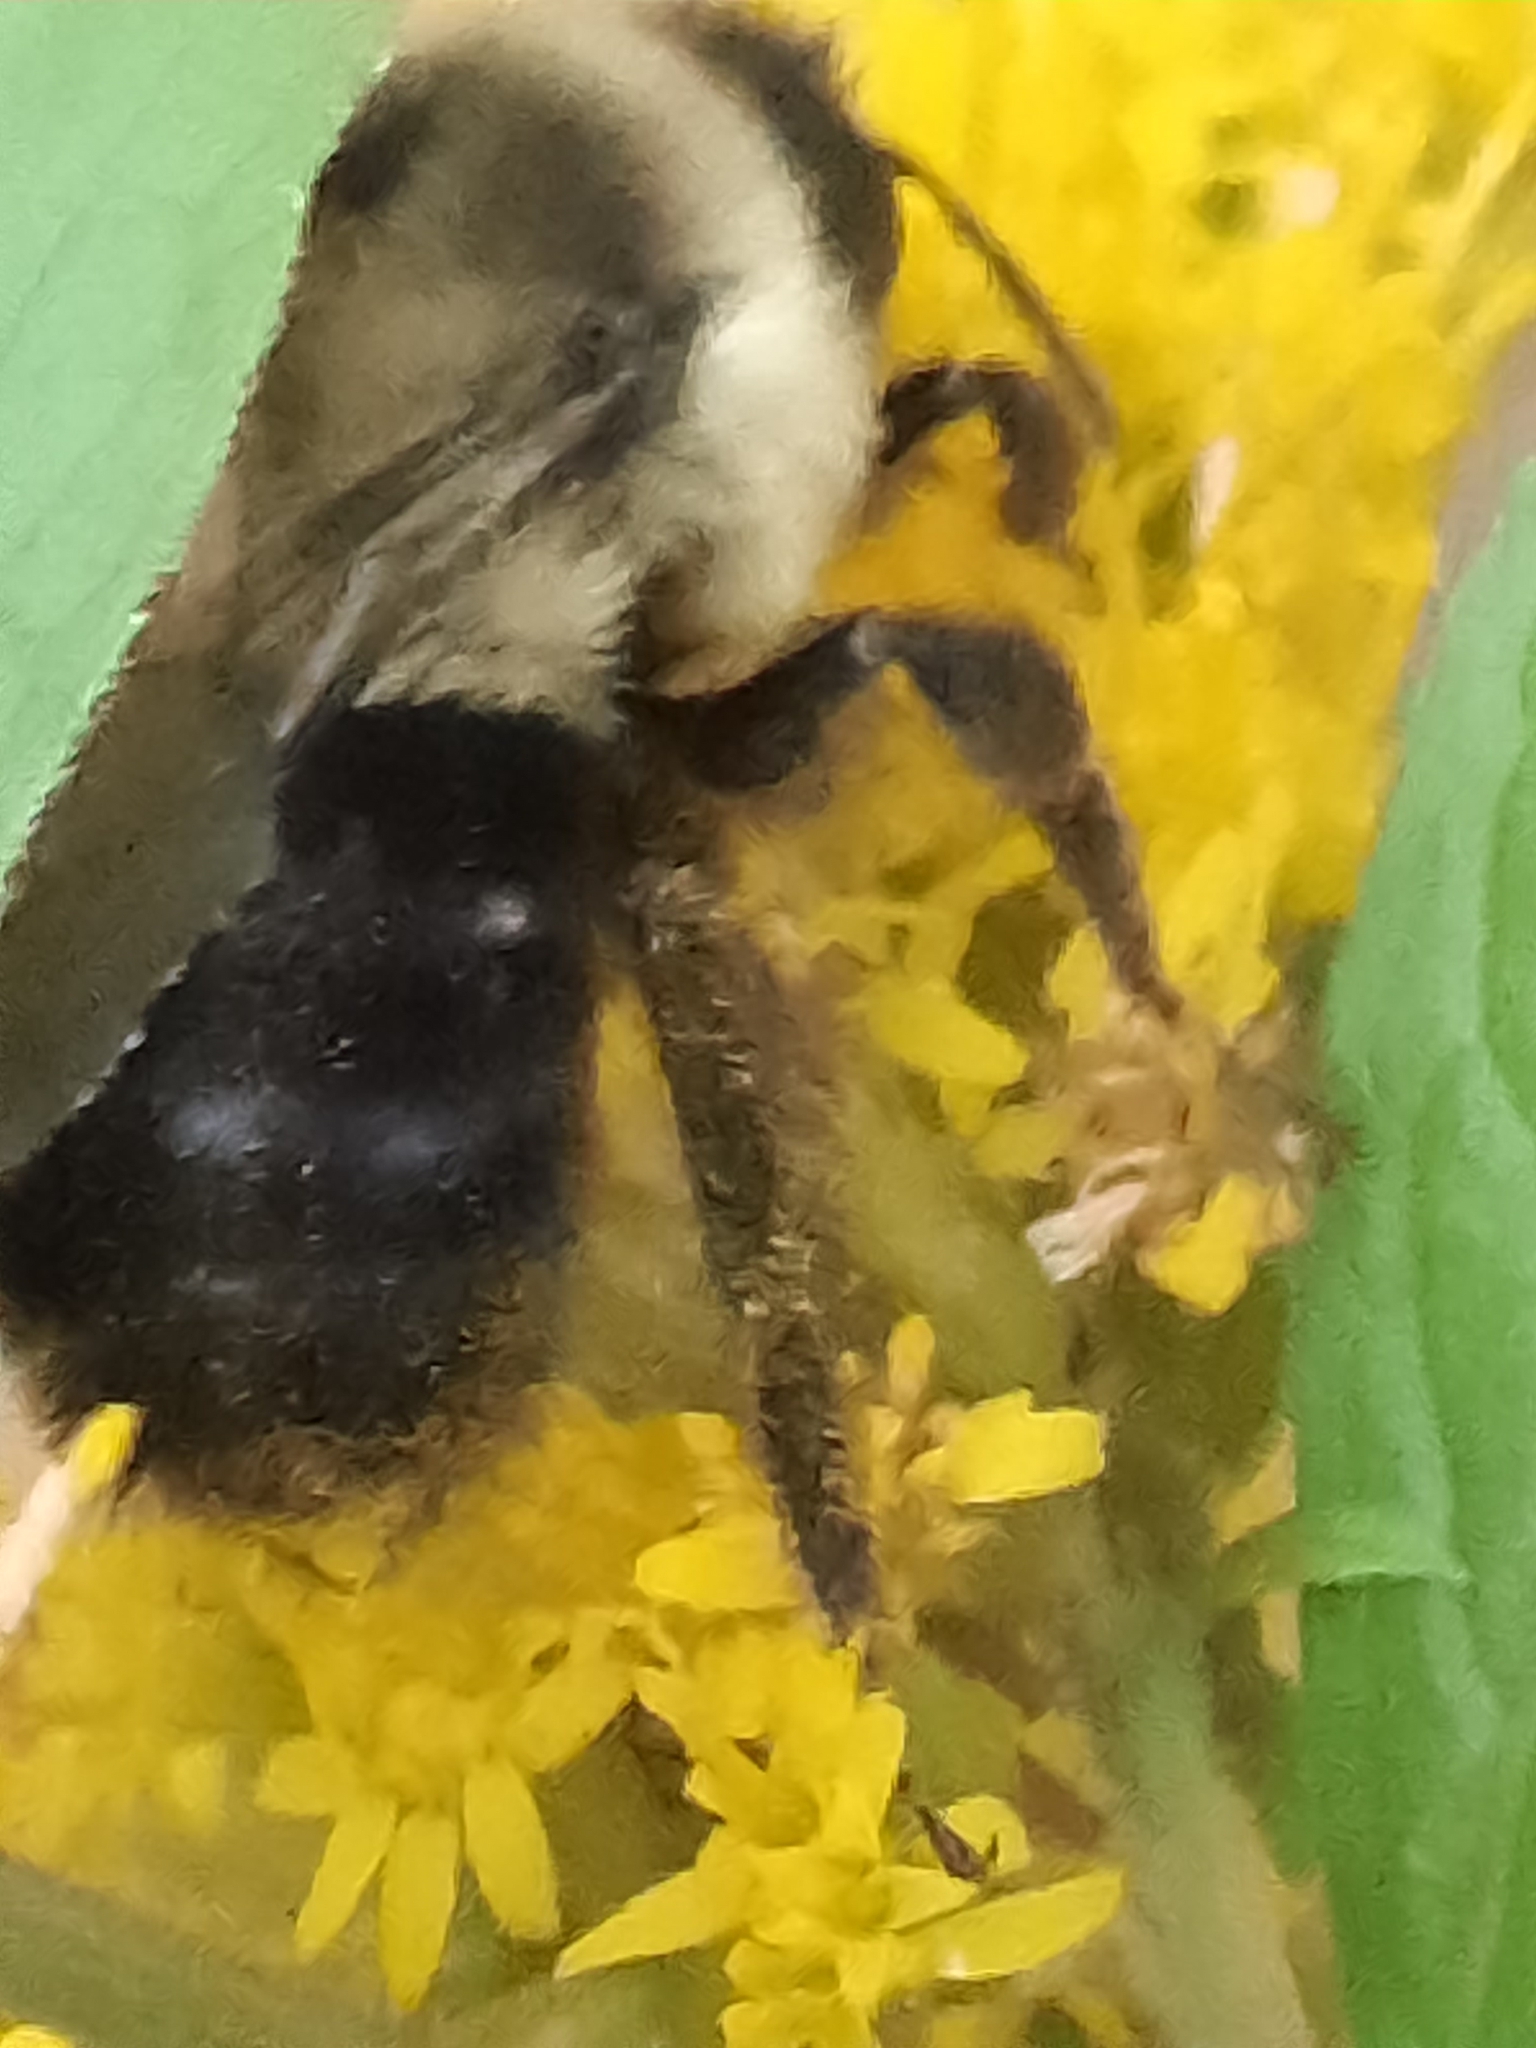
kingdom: Animalia
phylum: Arthropoda
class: Insecta
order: Hymenoptera
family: Apidae
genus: Bombus
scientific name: Bombus impatiens
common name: Common eastern bumble bee
